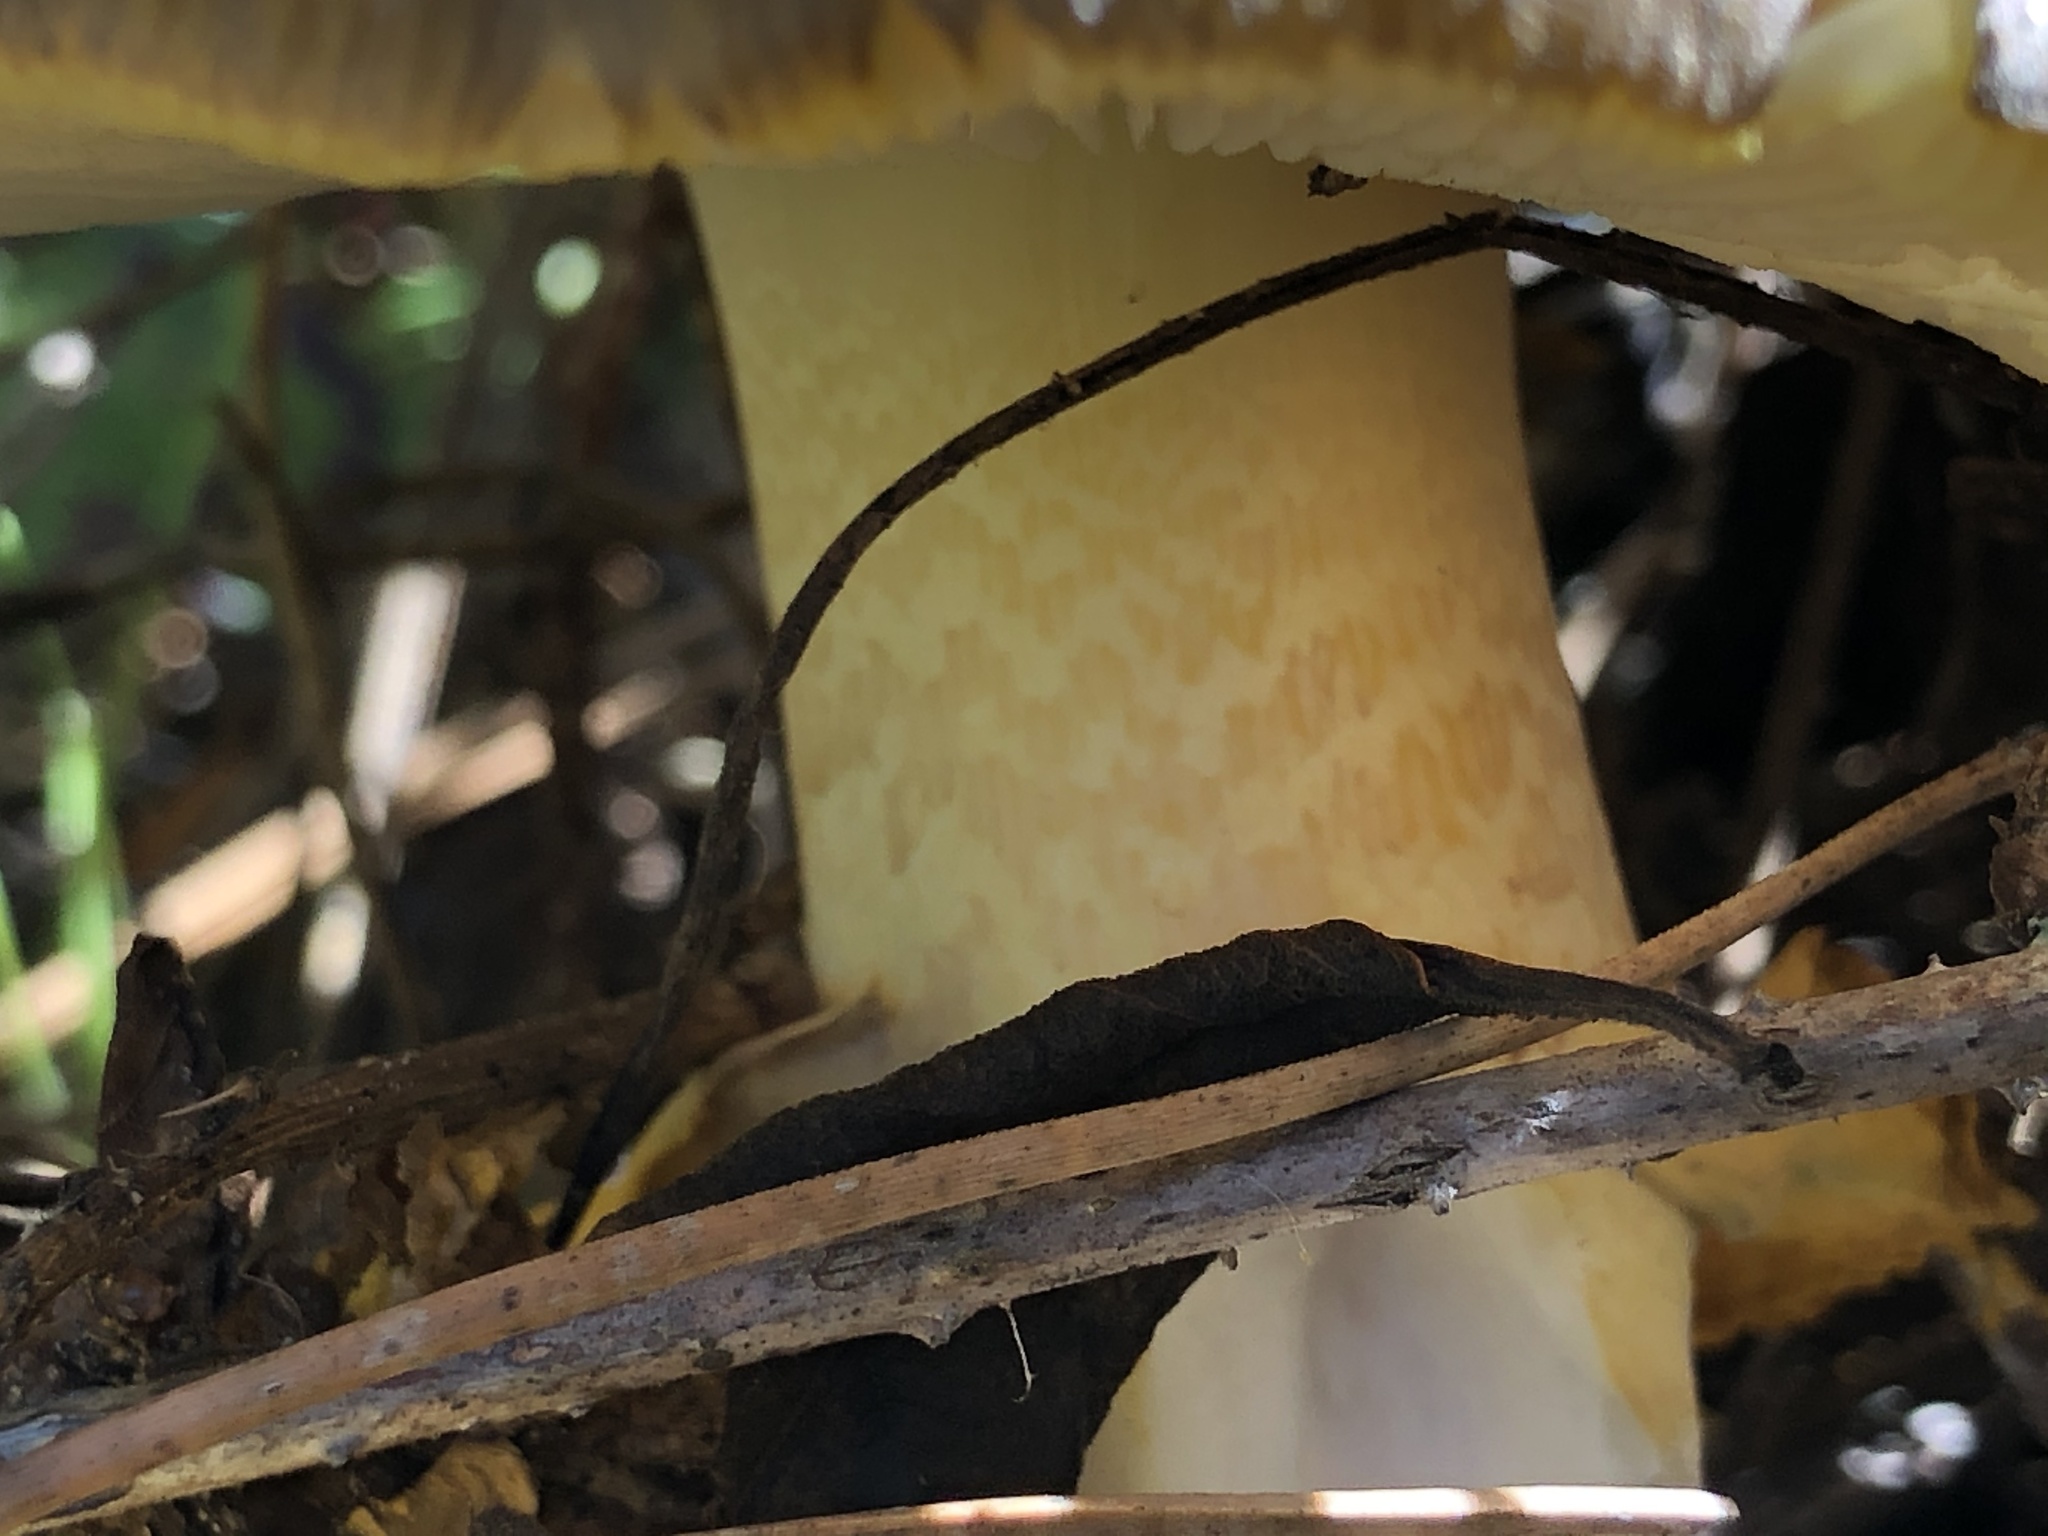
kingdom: Fungi
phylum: Basidiomycota
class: Agaricomycetes
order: Agaricales
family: Amanitaceae
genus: Amanita
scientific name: Amanita augusta
